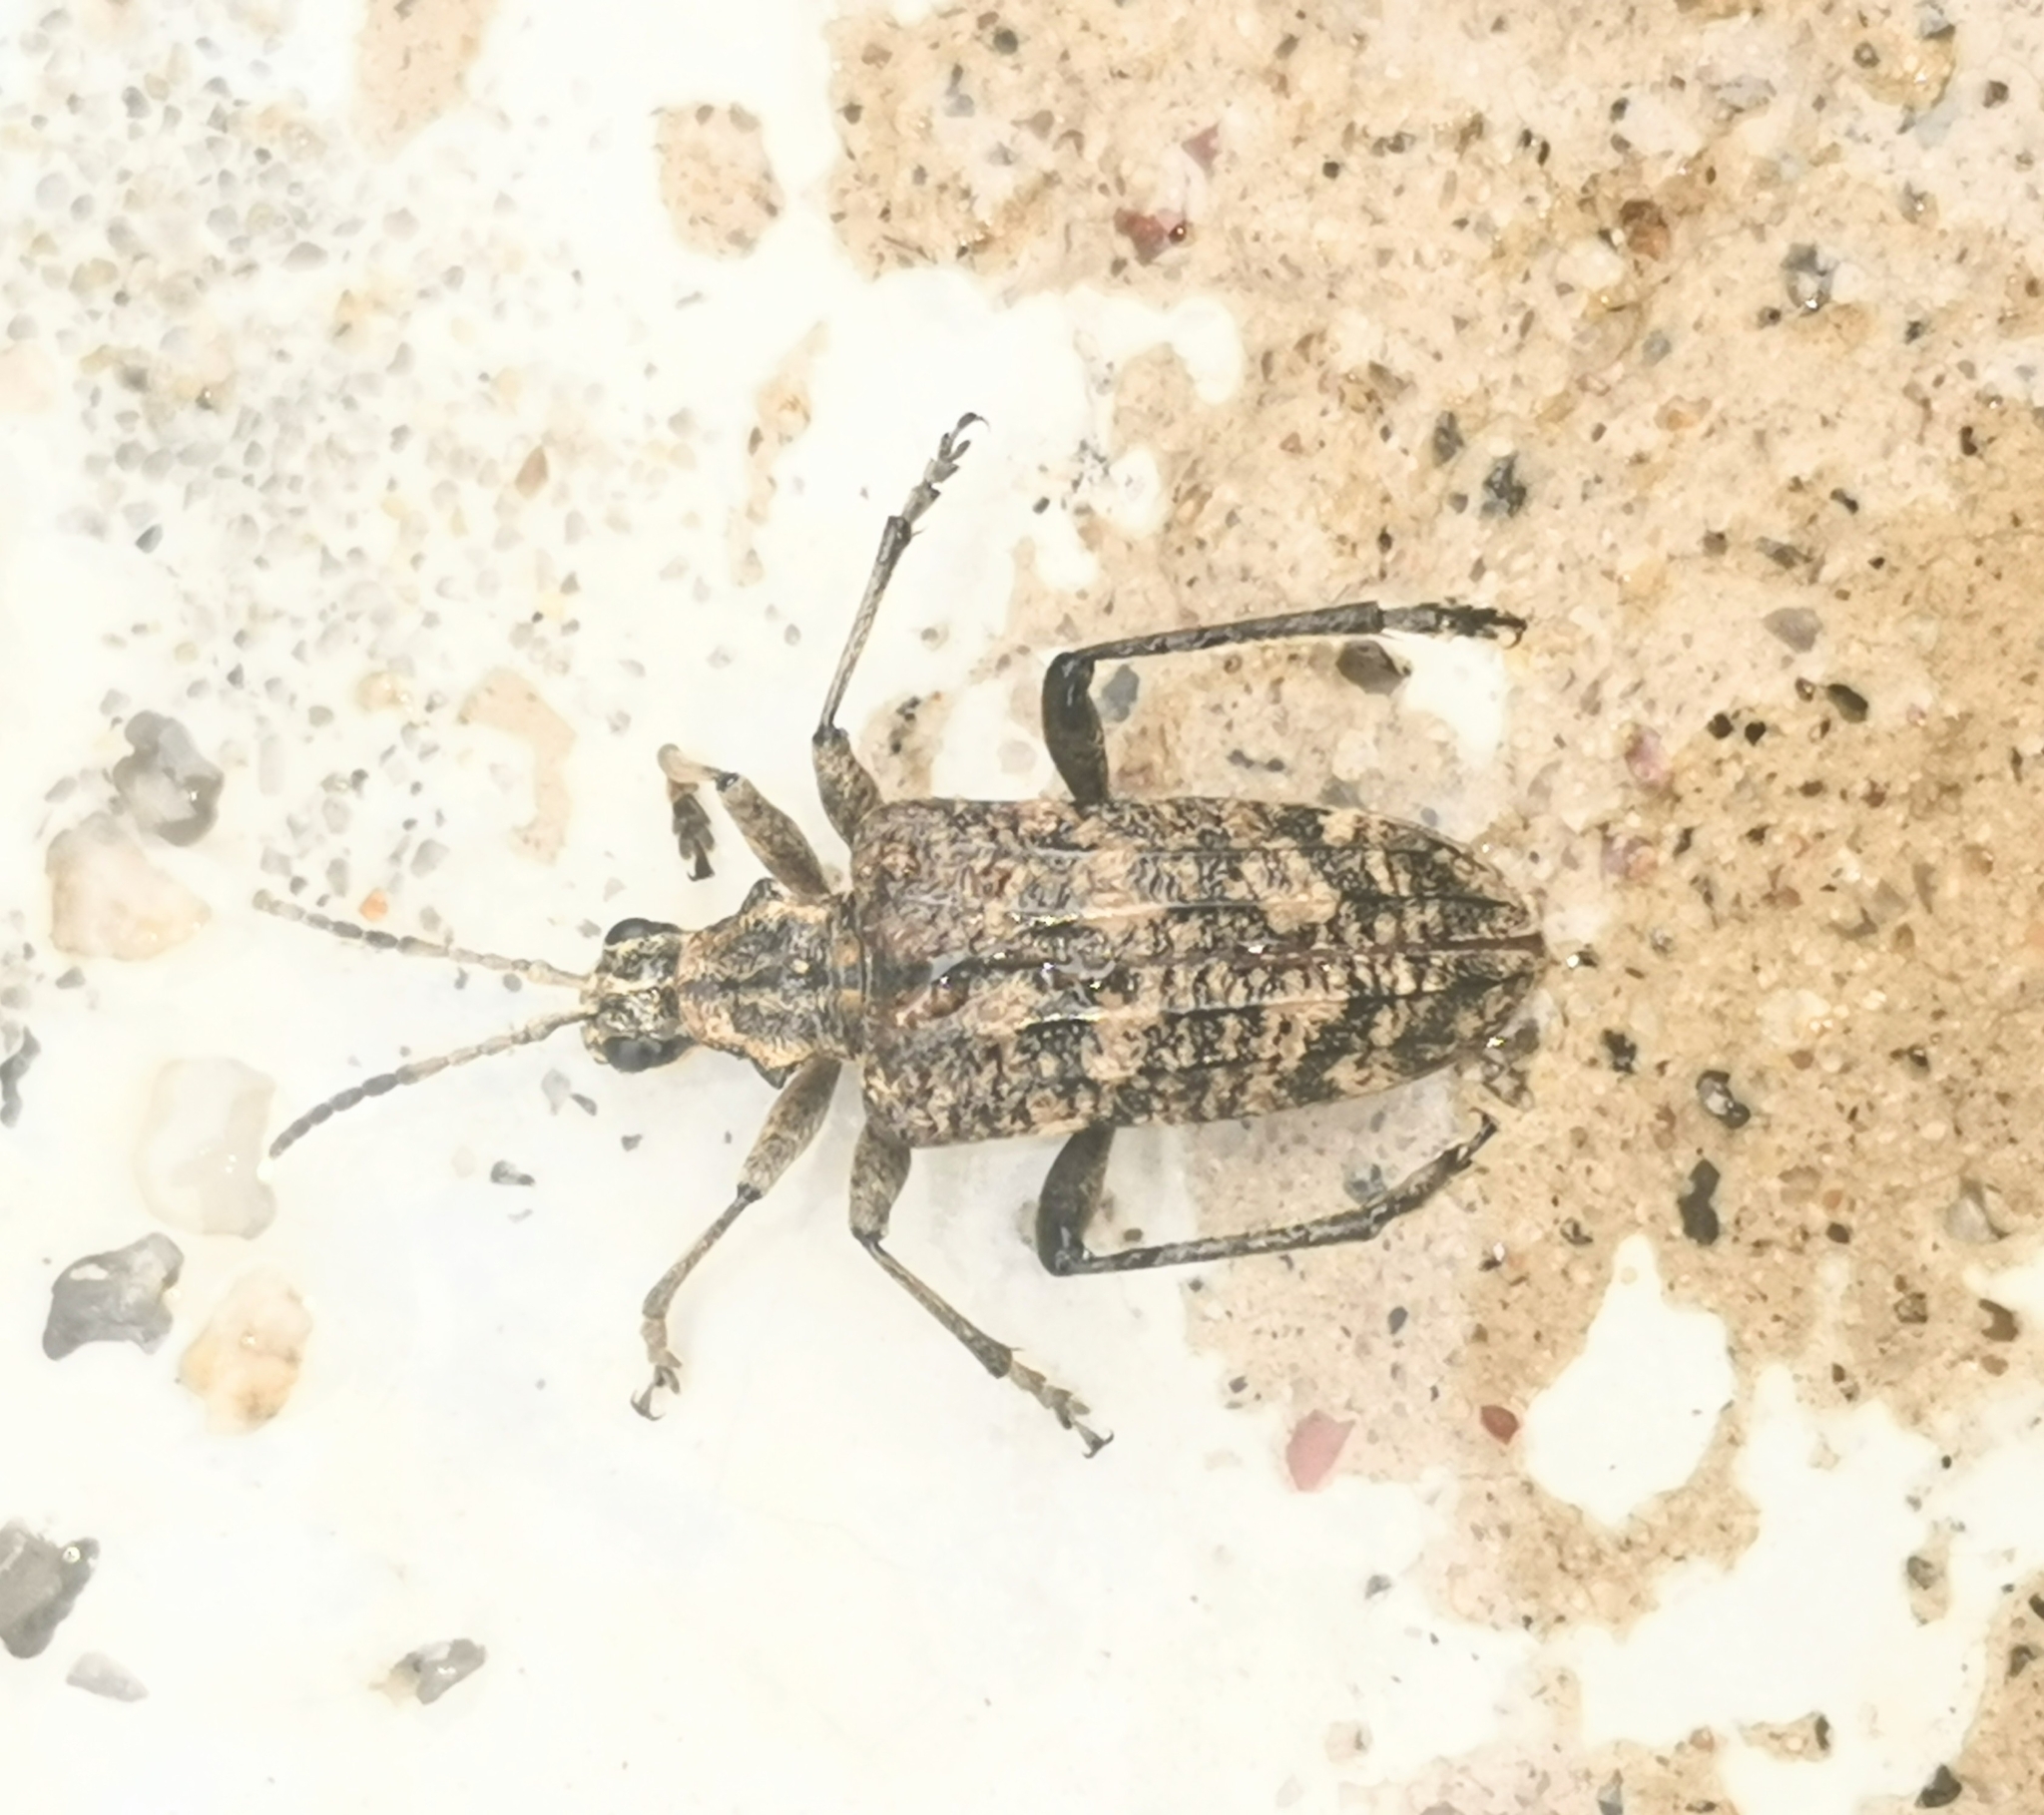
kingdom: Animalia
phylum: Arthropoda
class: Insecta
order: Coleoptera
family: Cerambycidae
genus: Rhagium
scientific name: Rhagium inquisitor
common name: Ribbed pine borer
